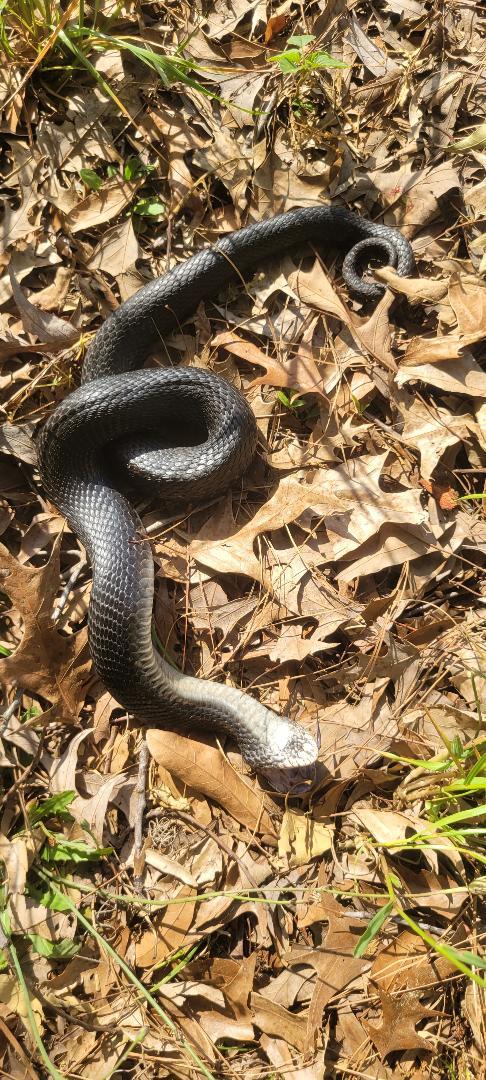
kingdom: Animalia
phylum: Chordata
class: Squamata
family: Colubridae
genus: Heterodon
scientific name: Heterodon platirhinos
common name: Eastern hognose snake
